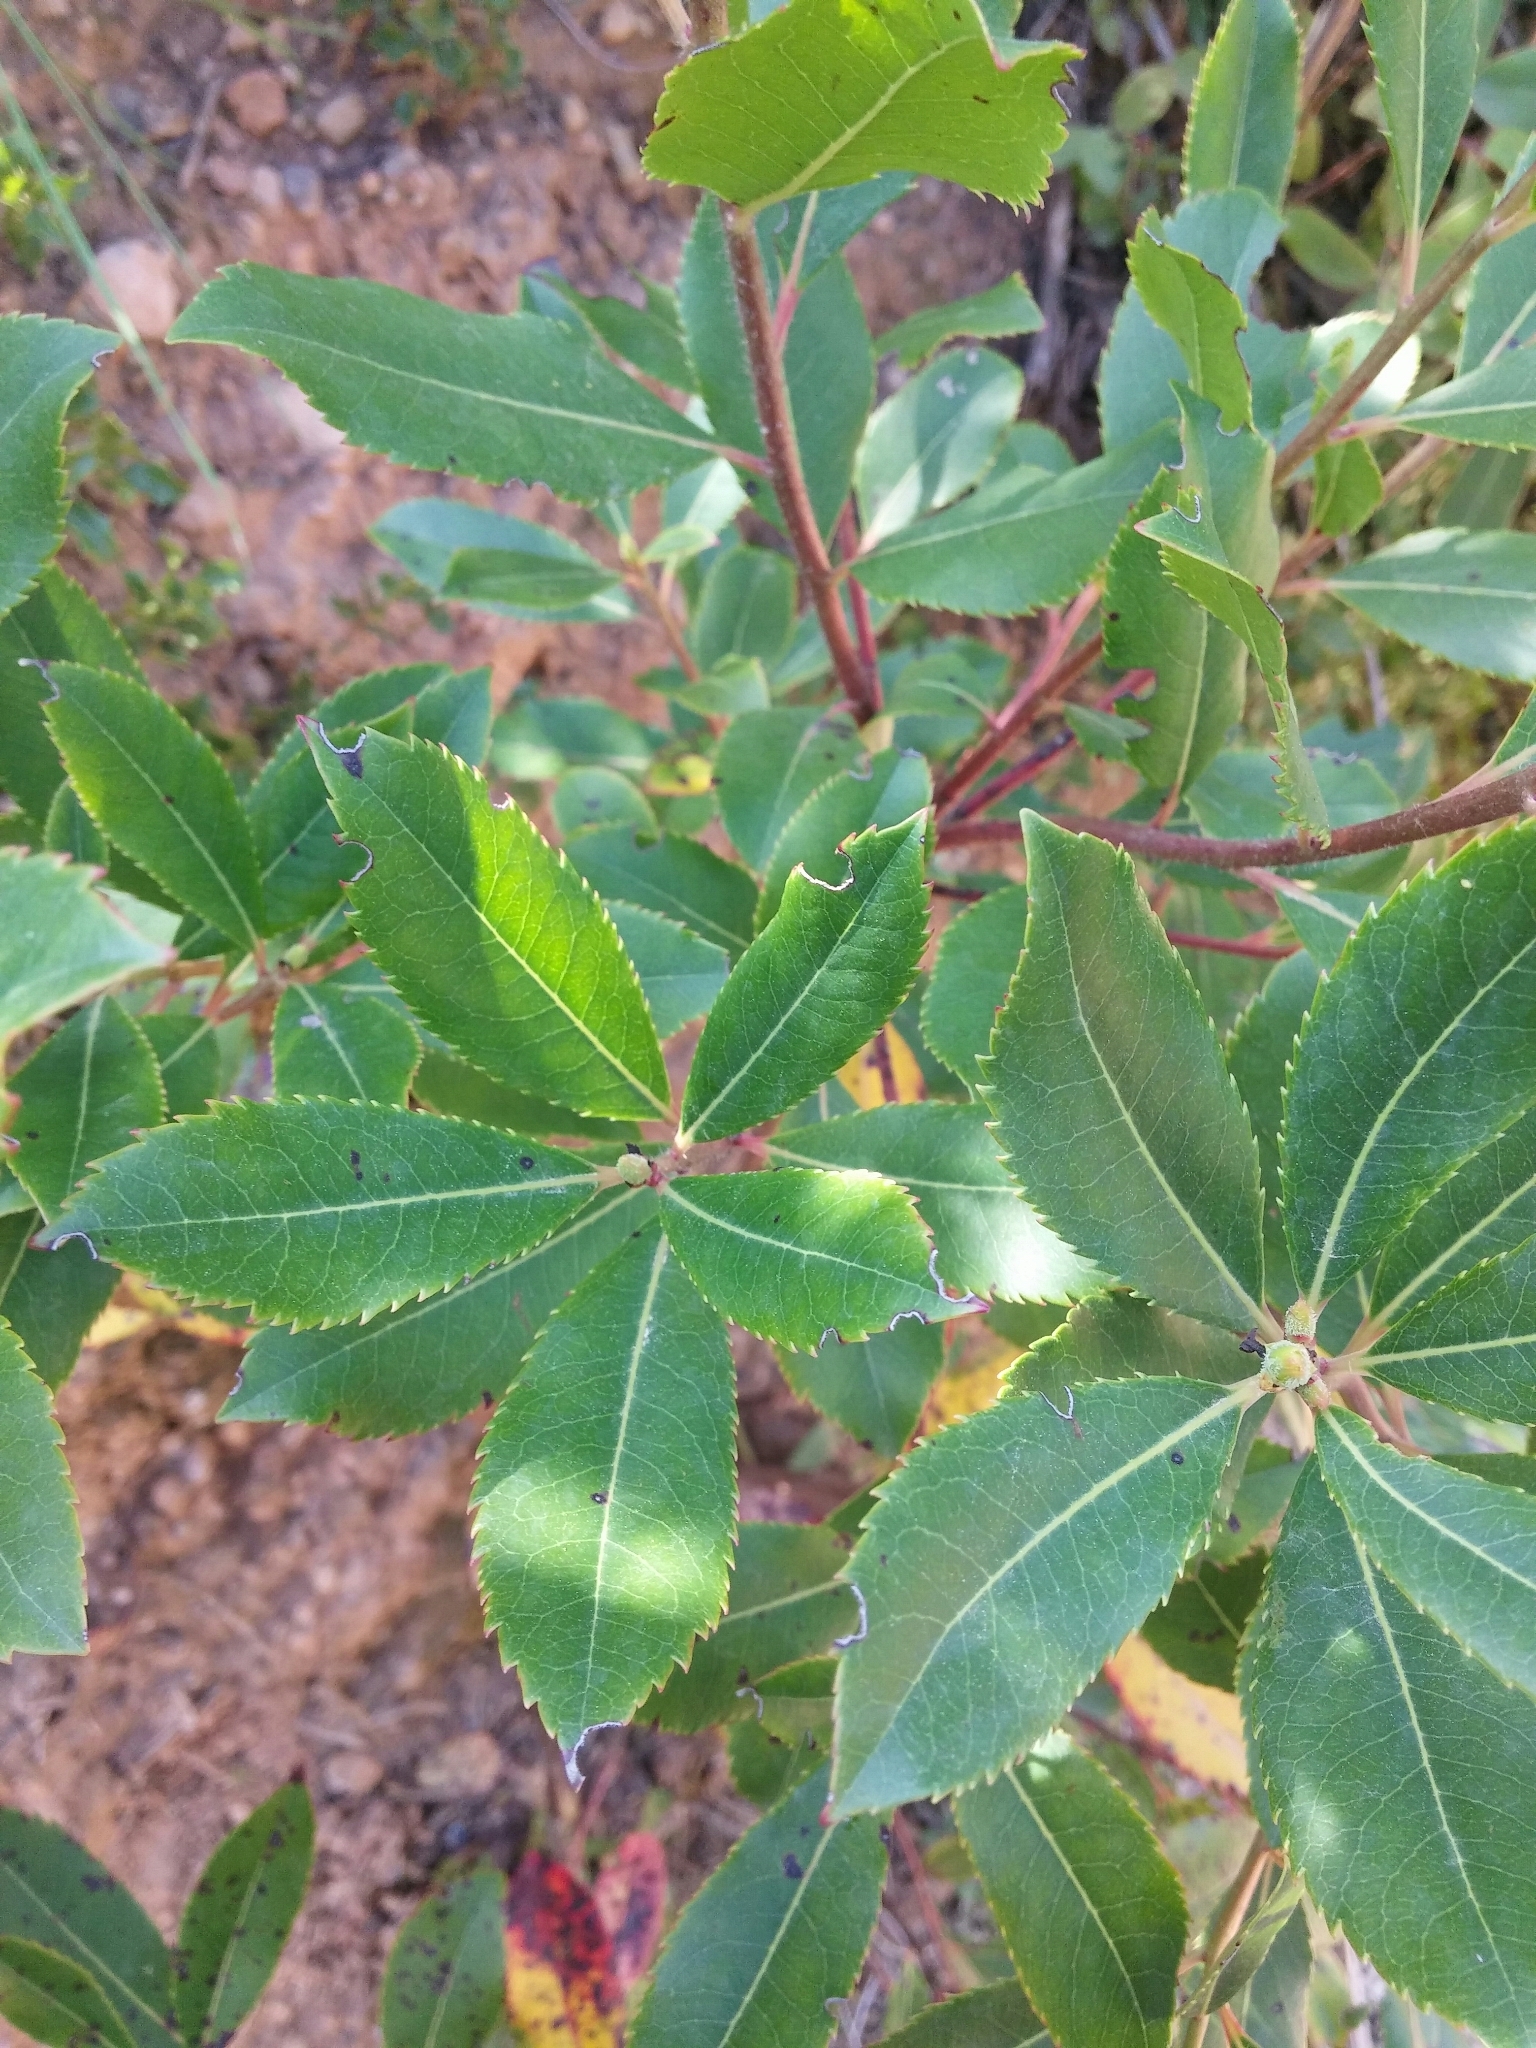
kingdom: Plantae
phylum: Tracheophyta
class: Magnoliopsida
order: Ericales
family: Ericaceae
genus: Arbutus
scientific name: Arbutus unedo
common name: Strawberry-tree
